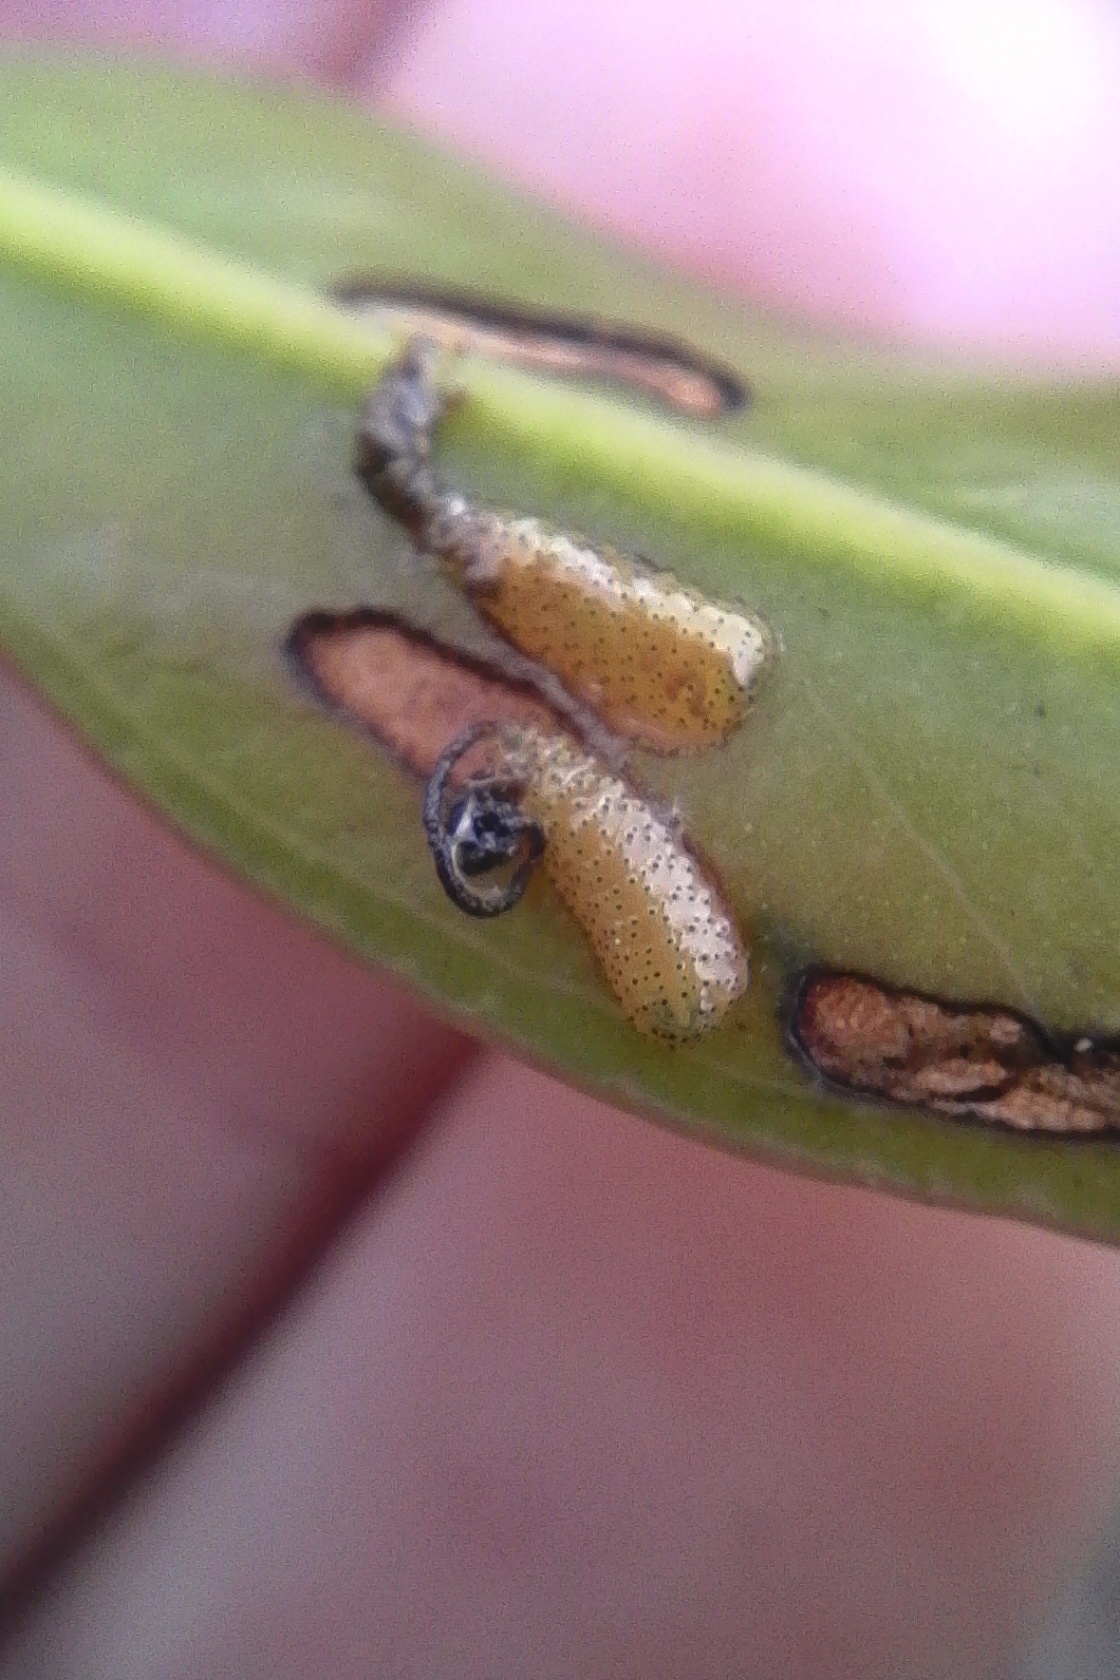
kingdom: Animalia
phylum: Arthropoda
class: Insecta
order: Coleoptera
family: Curculionidae
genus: Gonipterus
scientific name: Gonipterus platensis
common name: Eucalyptus snout beetle
